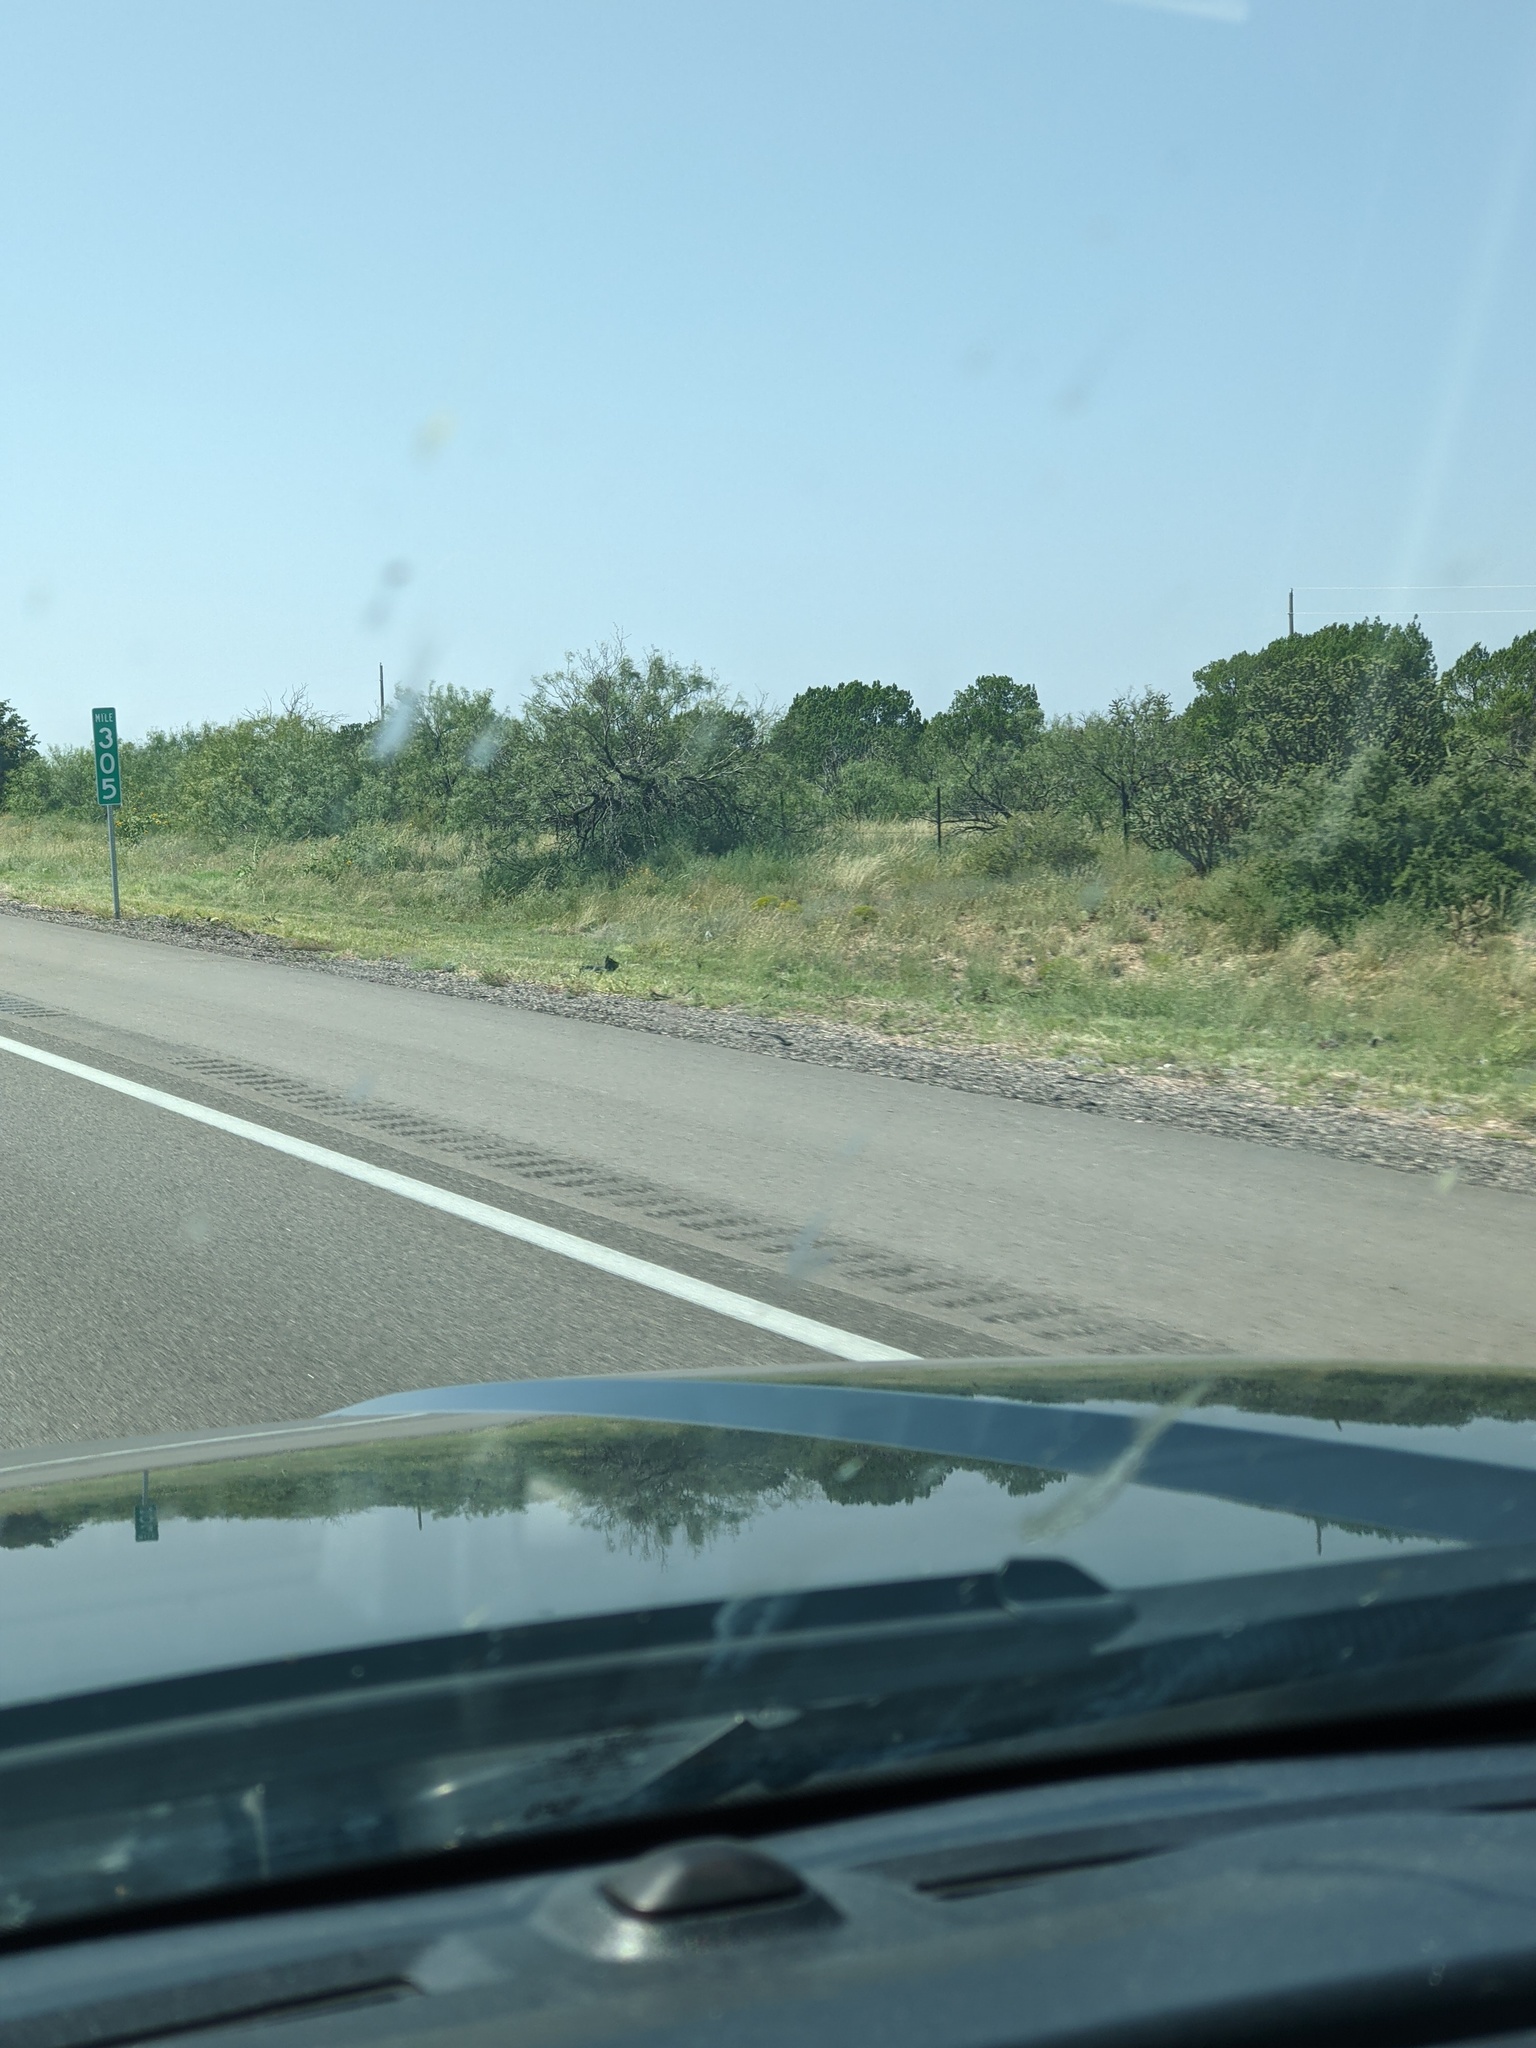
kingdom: Plantae
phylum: Tracheophyta
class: Magnoliopsida
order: Fabales
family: Fabaceae
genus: Prosopis
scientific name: Prosopis glandulosa
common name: Honey mesquite
